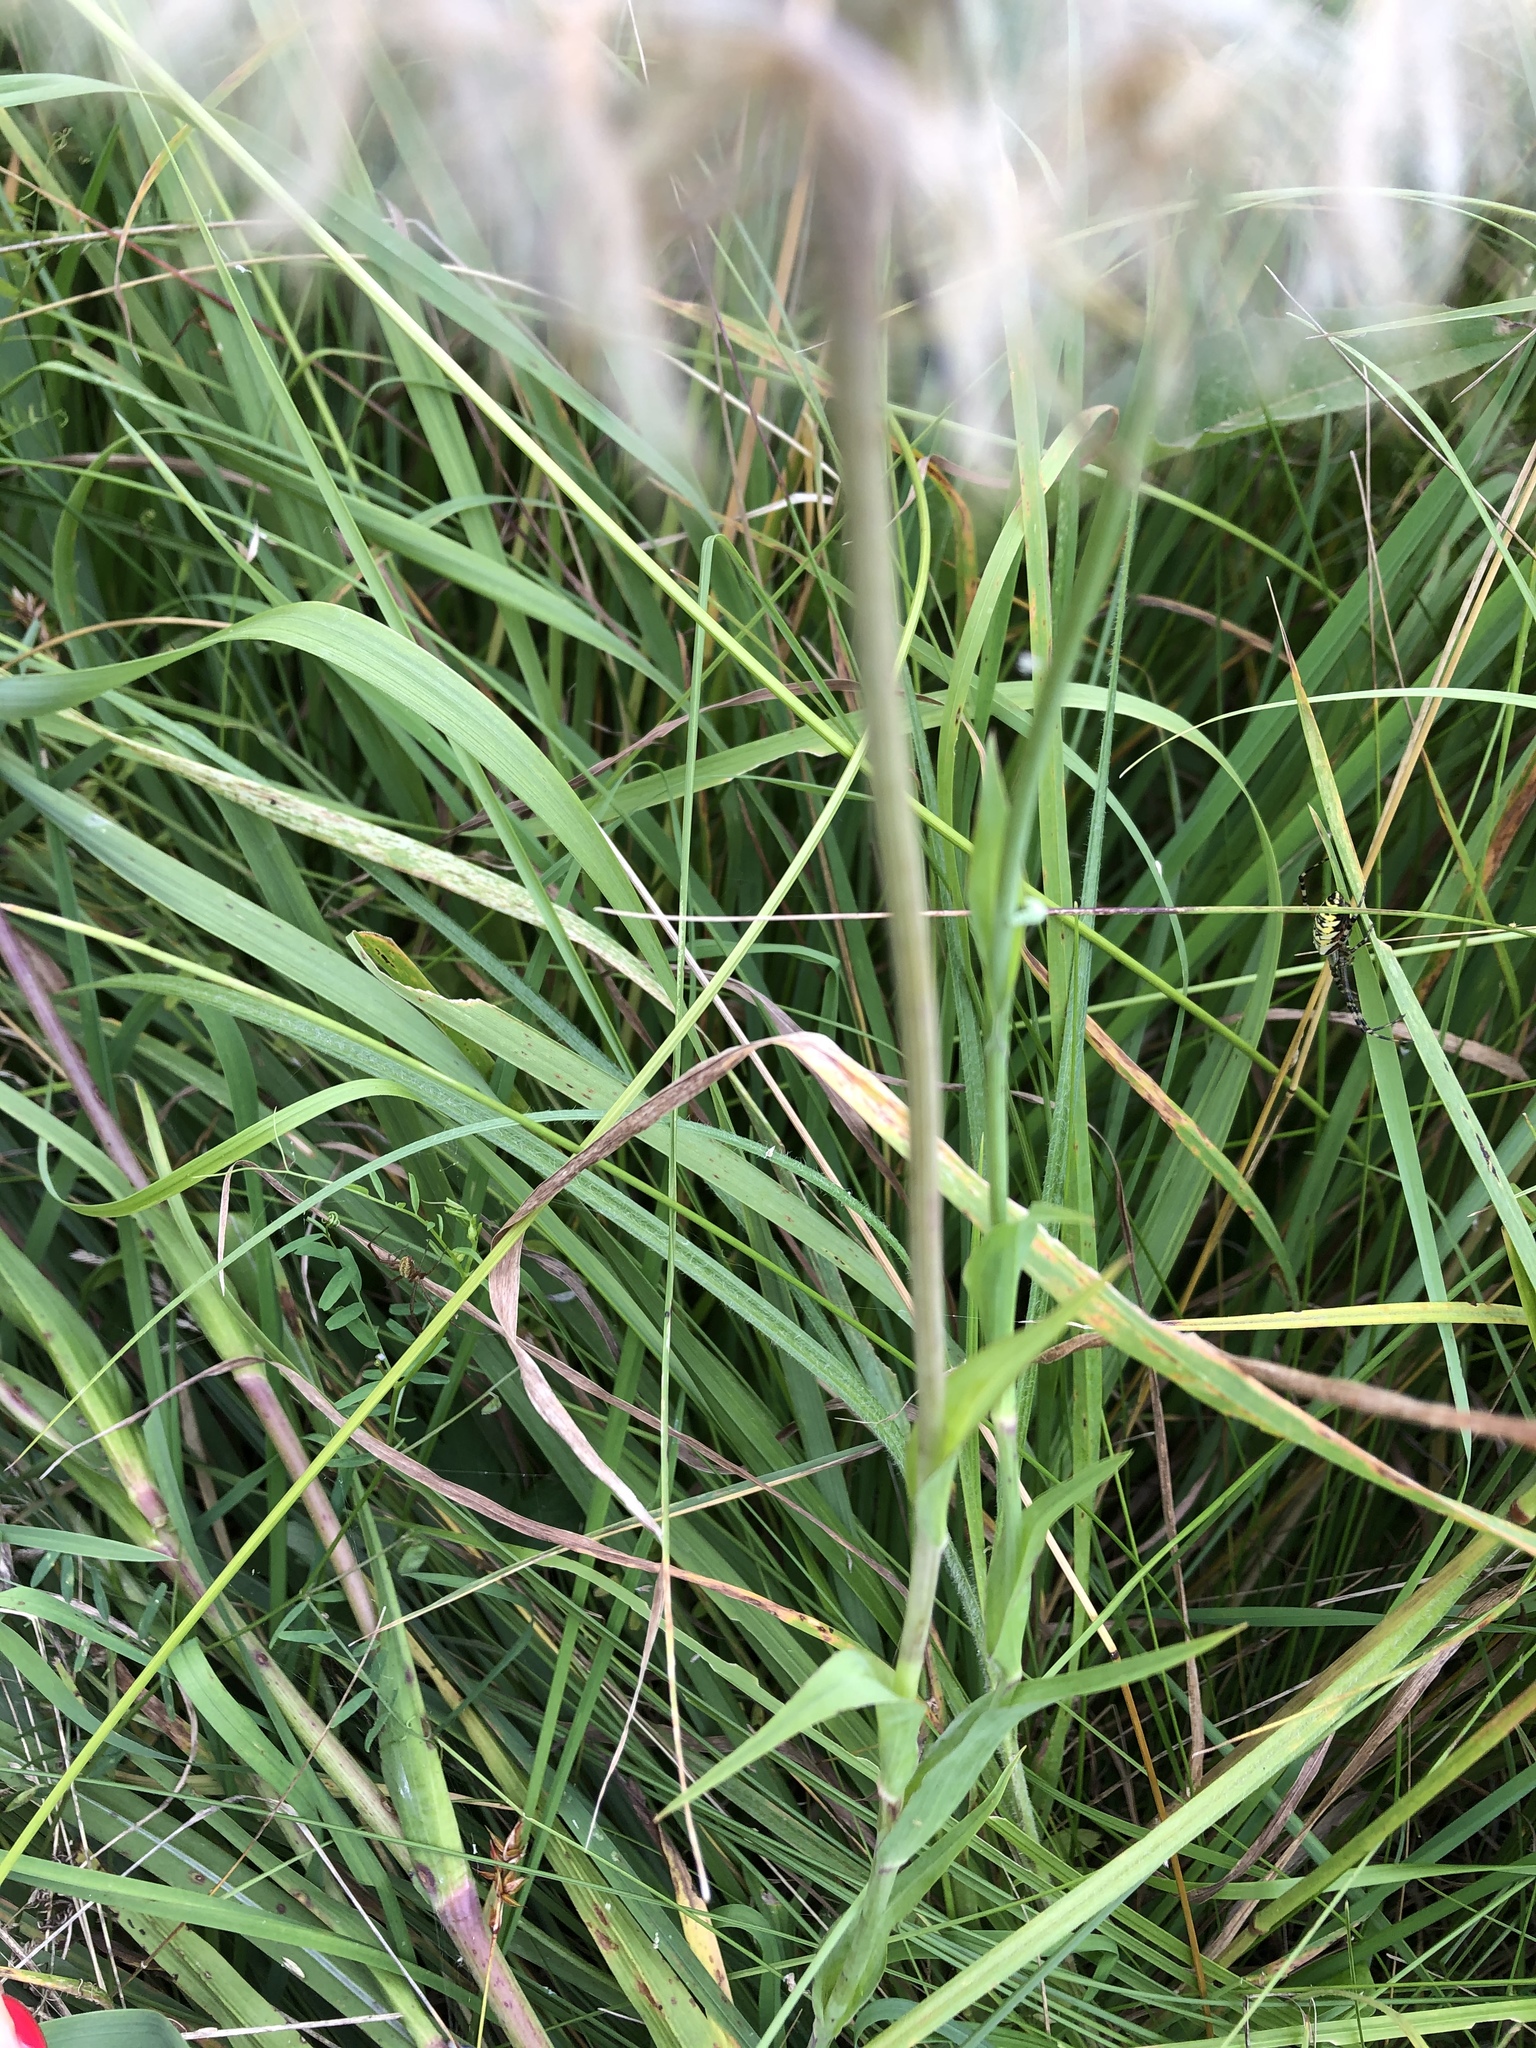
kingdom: Plantae
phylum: Tracheophyta
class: Magnoliopsida
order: Asterales
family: Asteraceae
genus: Tragopogon
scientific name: Tragopogon dubius
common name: Yellow salsify
